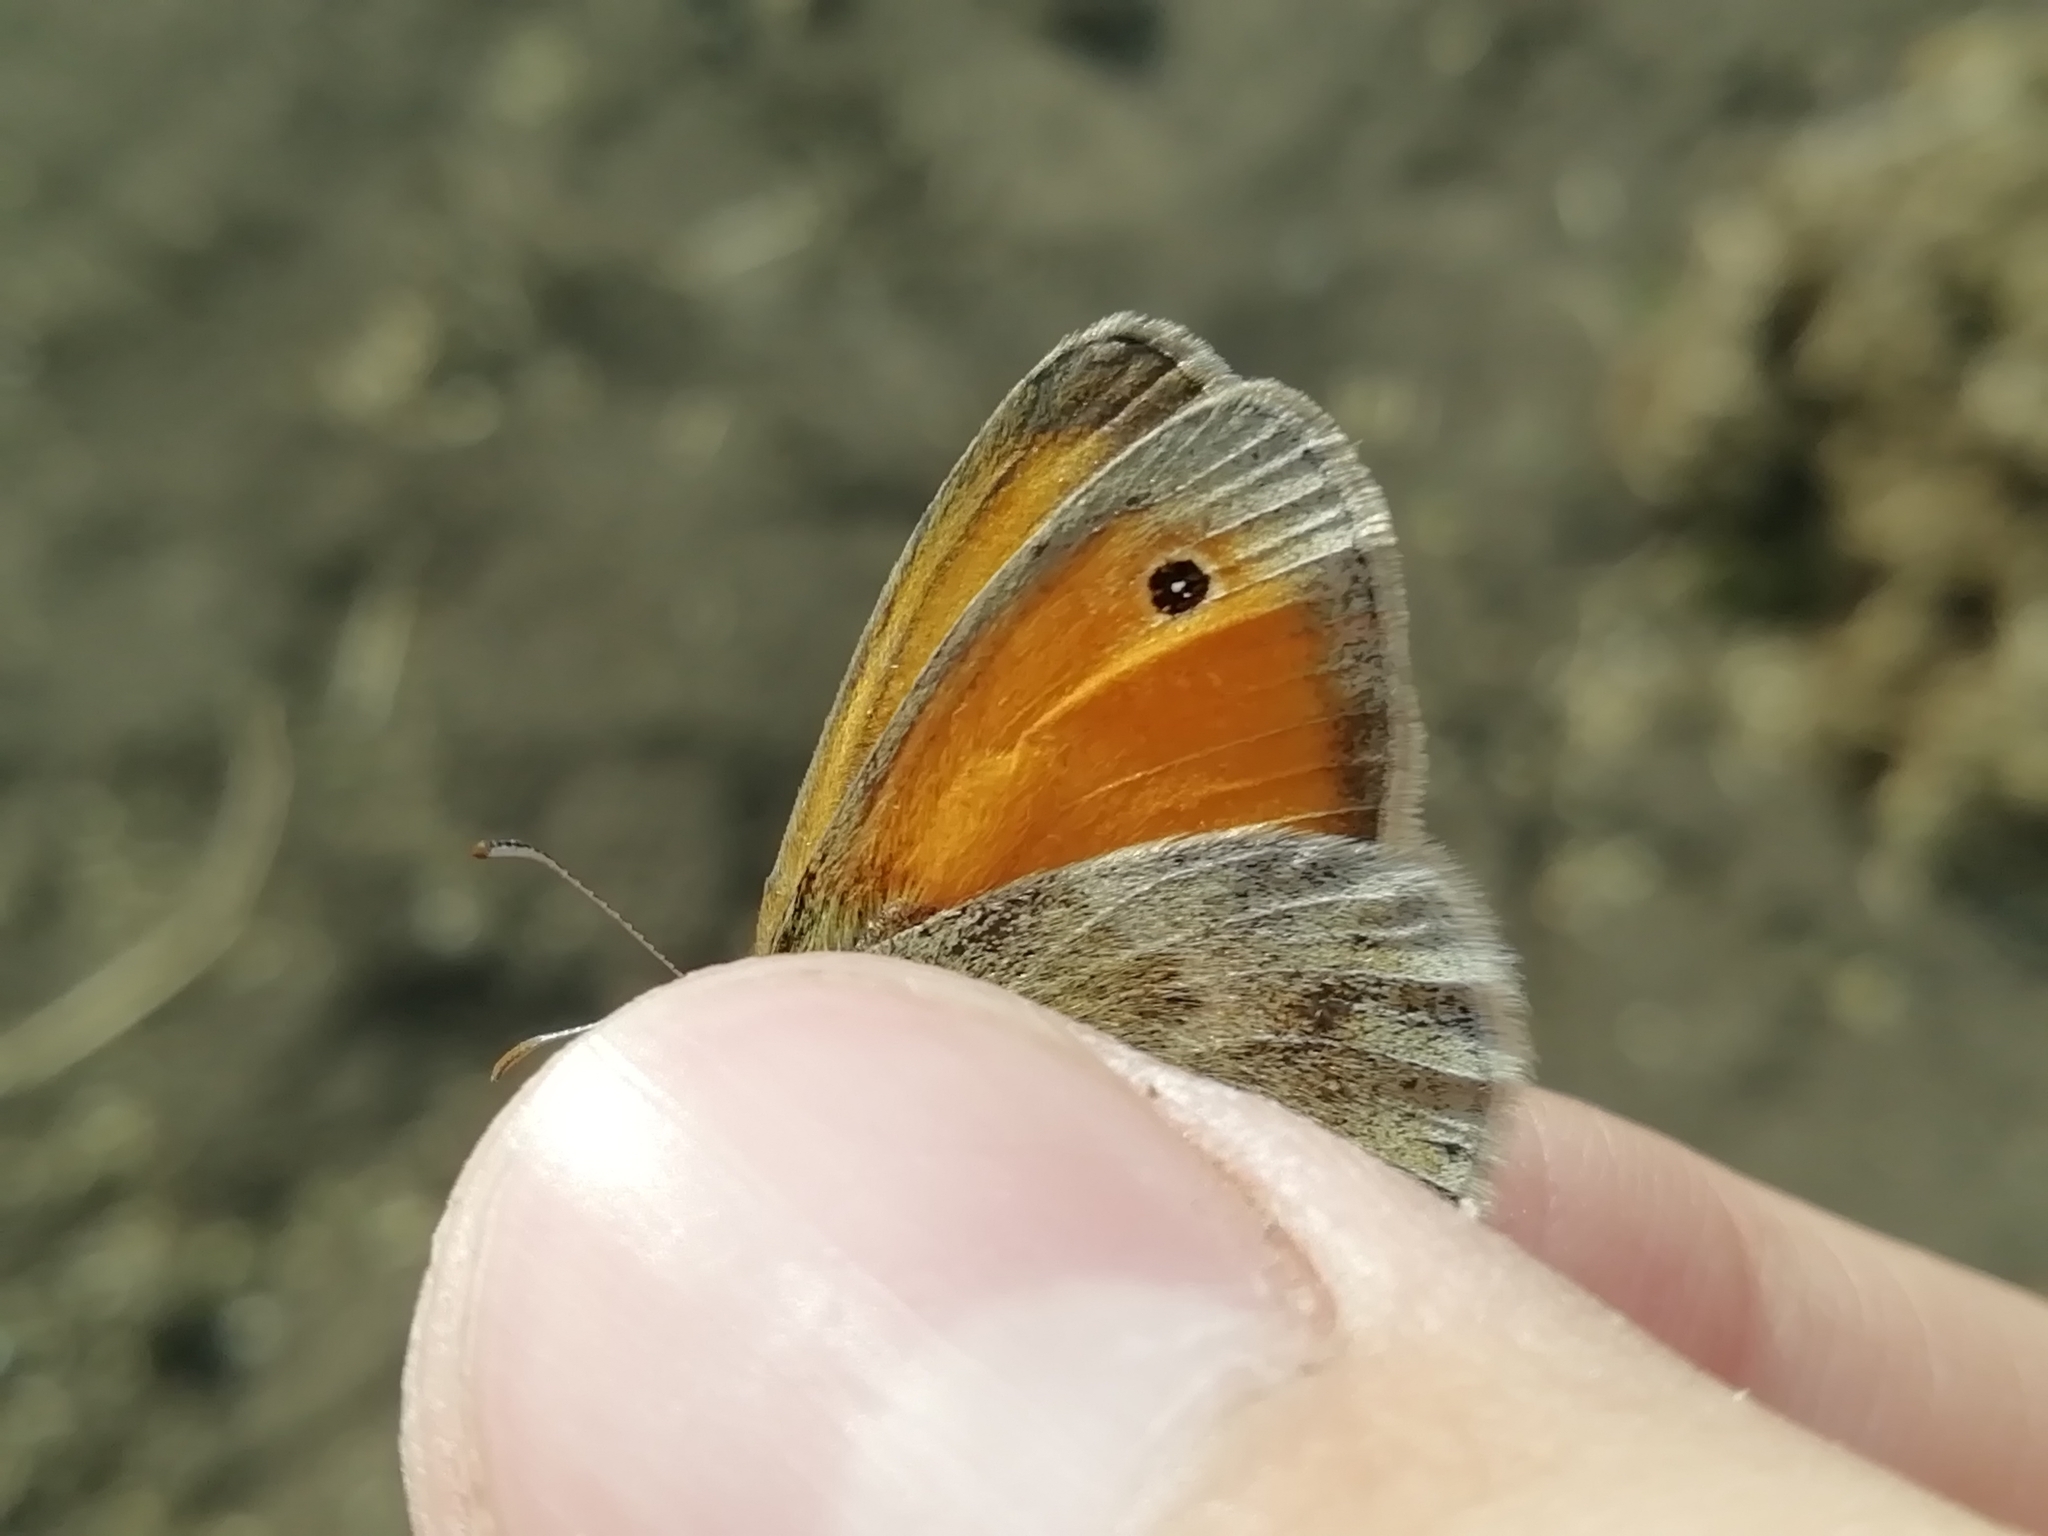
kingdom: Animalia
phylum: Arthropoda
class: Insecta
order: Lepidoptera
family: Nymphalidae
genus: Coenonympha
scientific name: Coenonympha pamphilus
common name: Small heath
